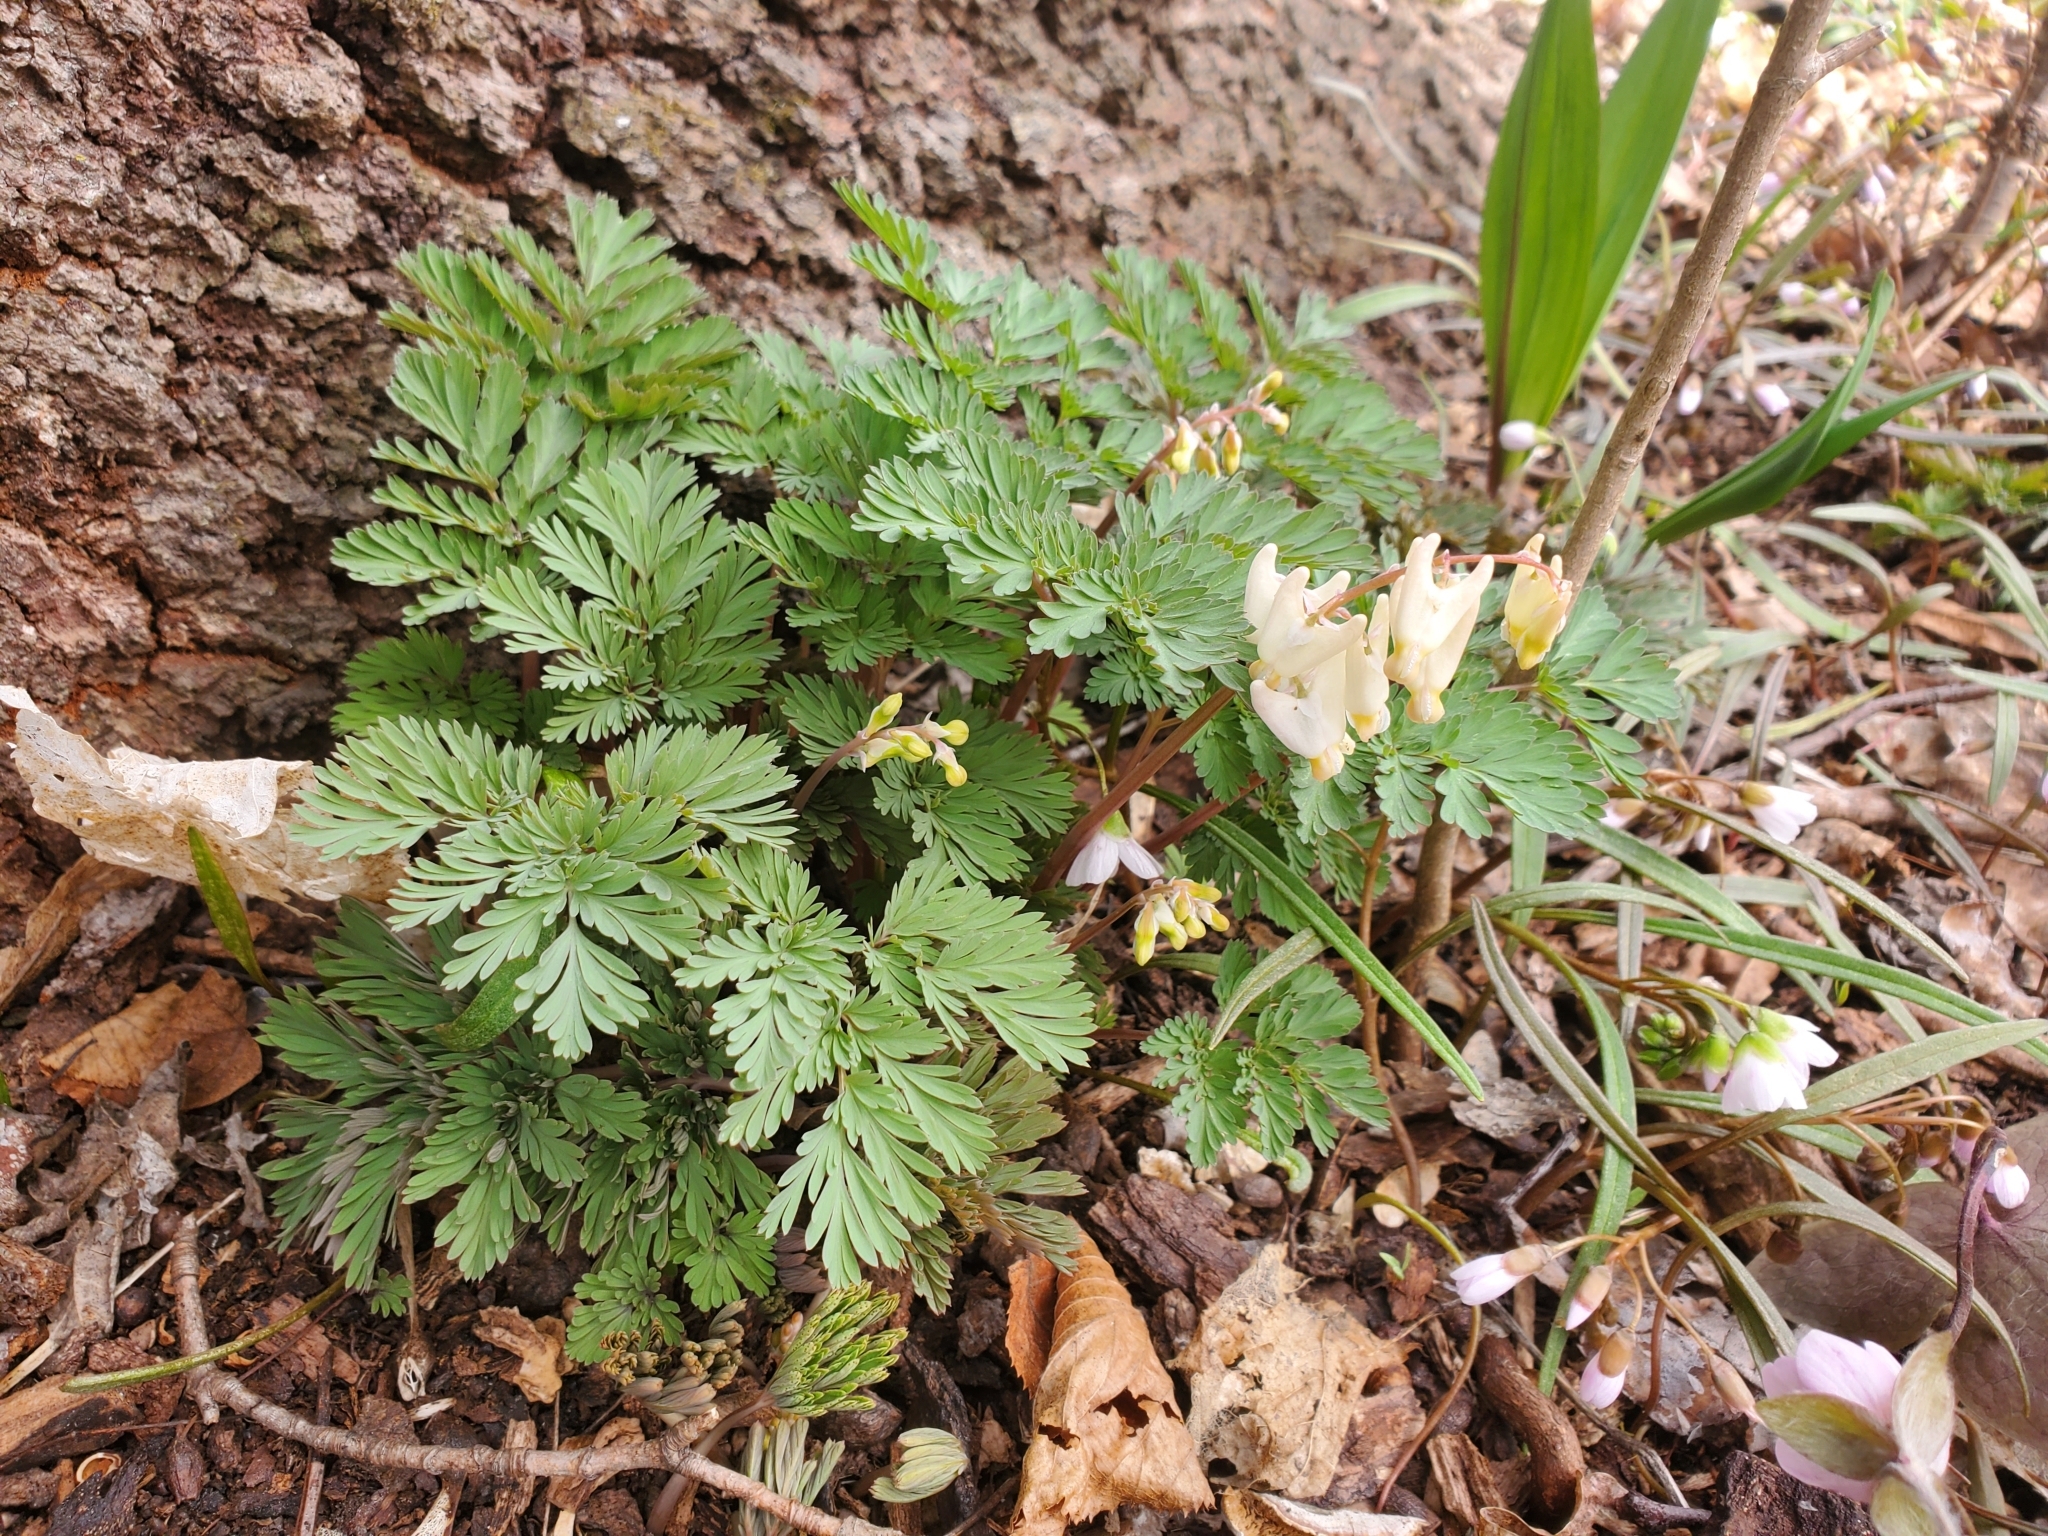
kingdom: Plantae
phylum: Tracheophyta
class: Magnoliopsida
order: Ranunculales
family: Papaveraceae
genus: Dicentra
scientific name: Dicentra cucullaria
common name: Dutchman's breeches
